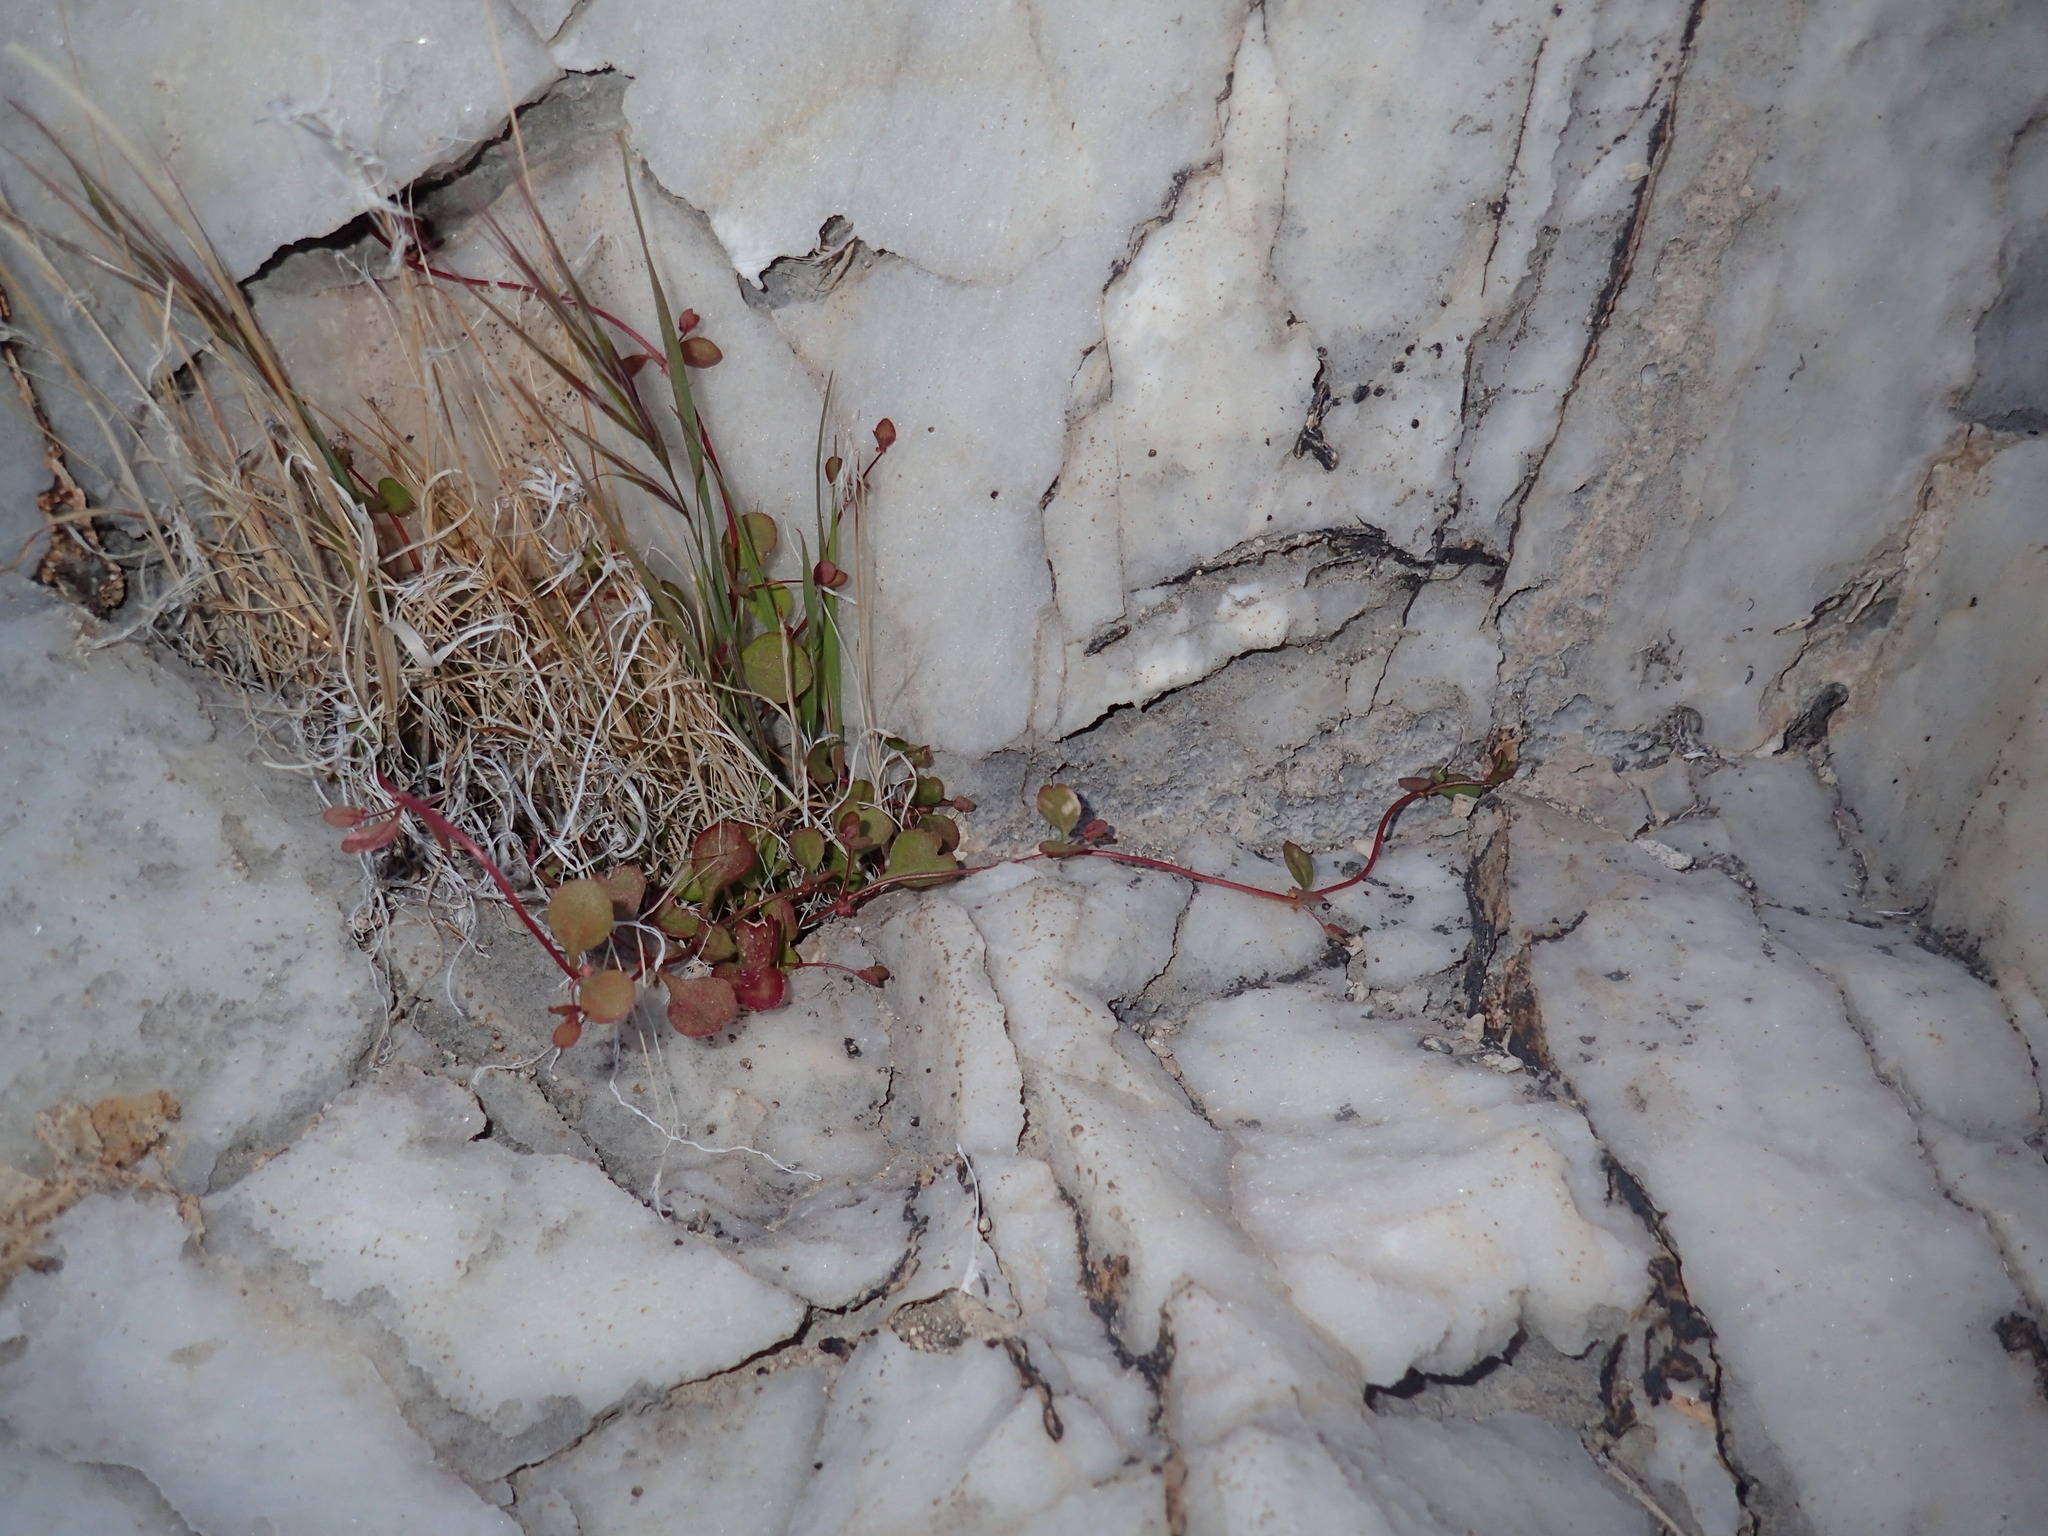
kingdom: Plantae
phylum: Tracheophyta
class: Magnoliopsida
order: Caryophyllales
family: Polygonaceae
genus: Pterostegia
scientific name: Pterostegia drymarioides
